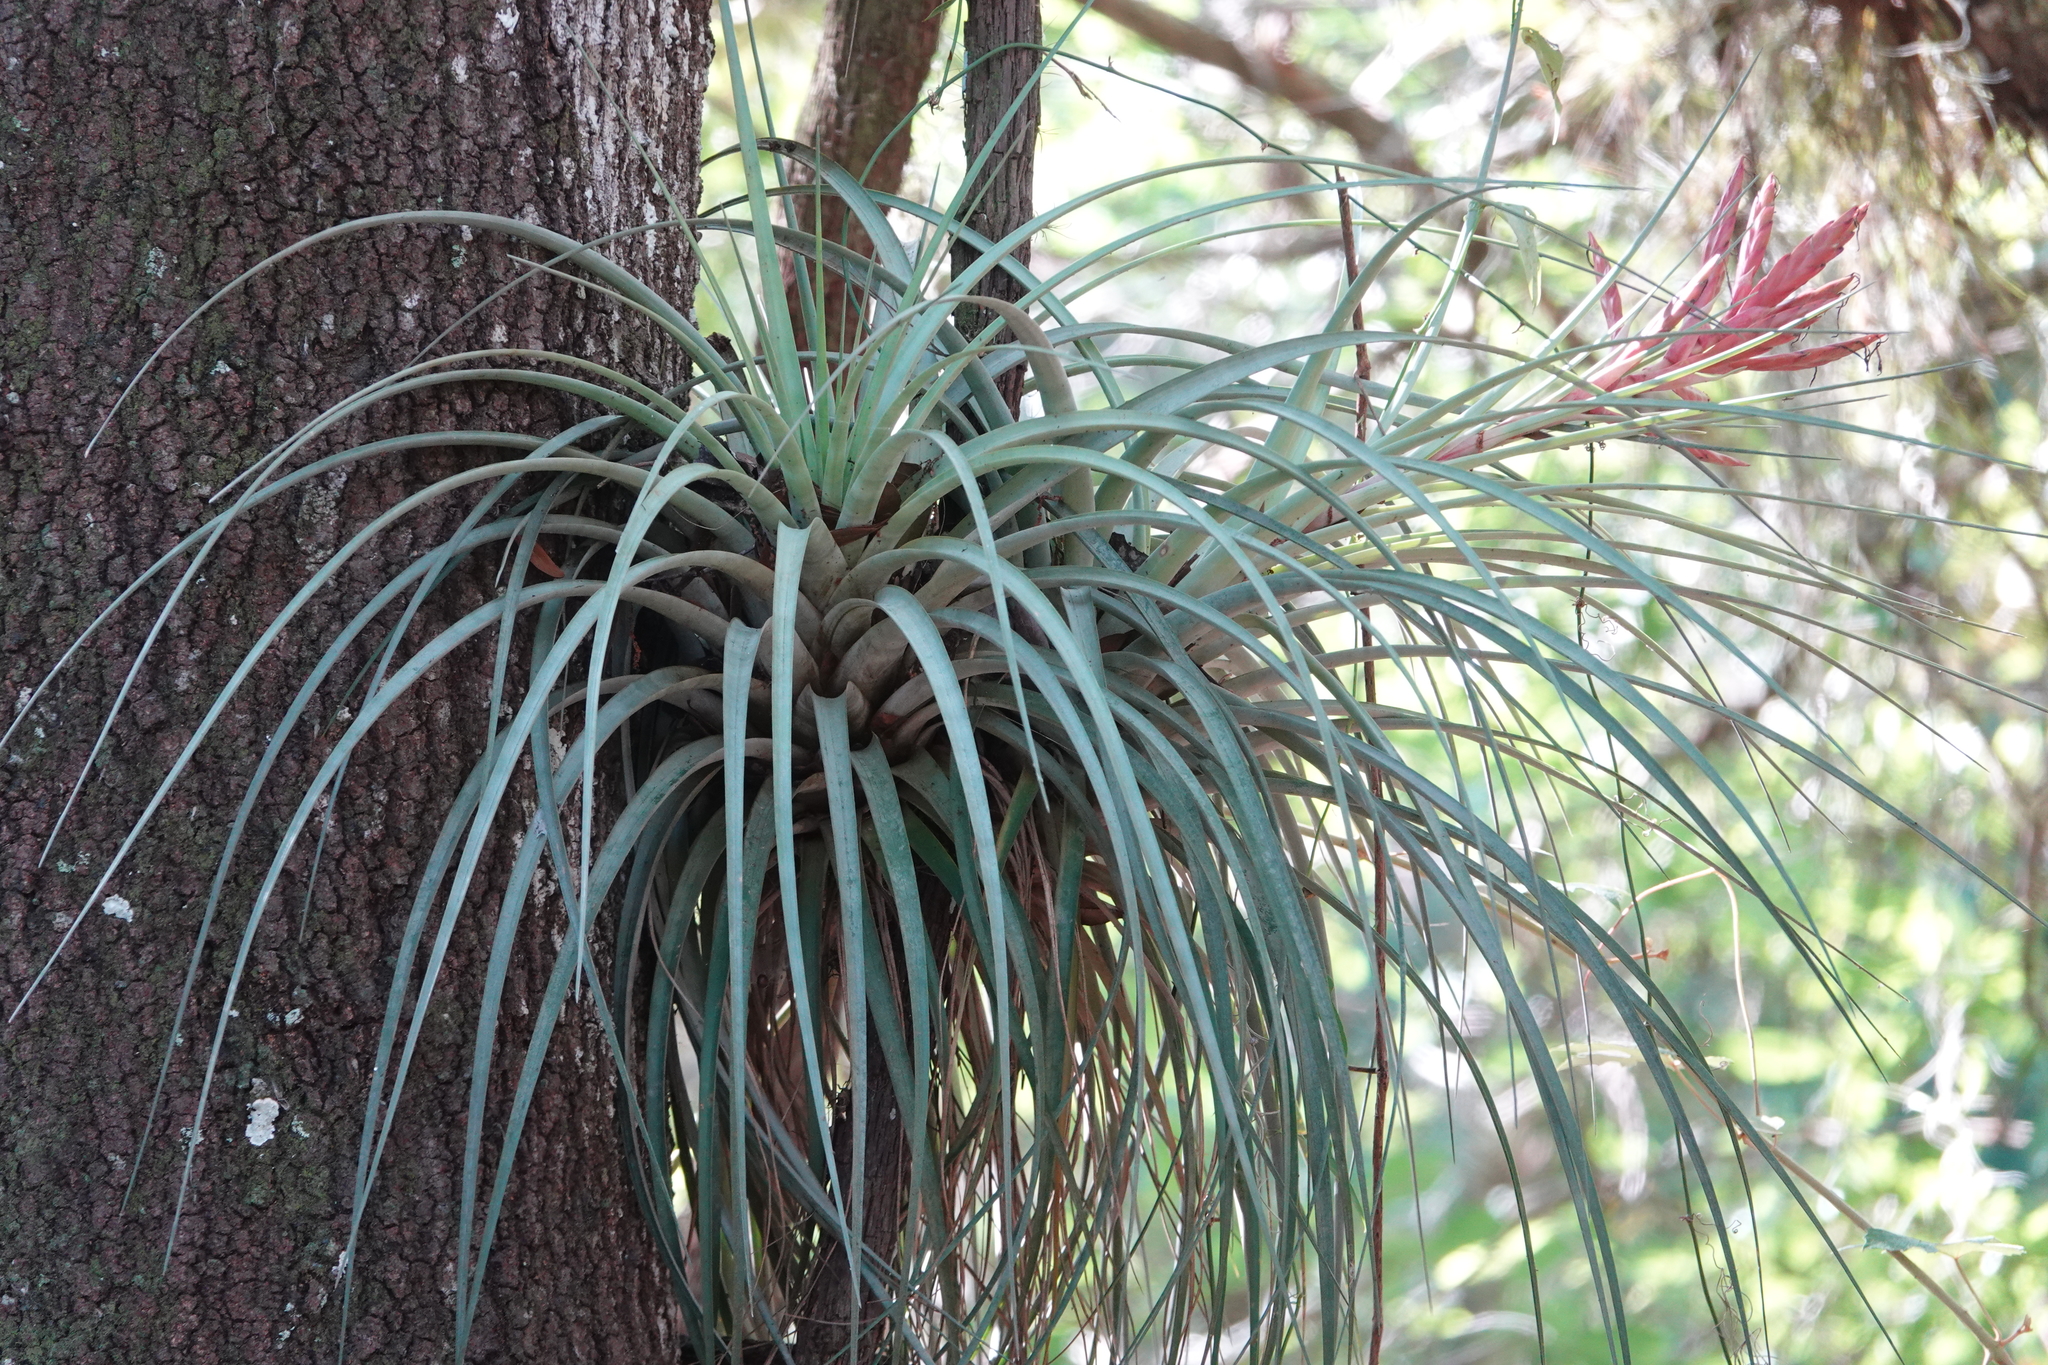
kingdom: Plantae
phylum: Tracheophyta
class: Liliopsida
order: Poales
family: Bromeliaceae
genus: Tillandsia
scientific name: Tillandsia fasciculata
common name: Giant airplant
